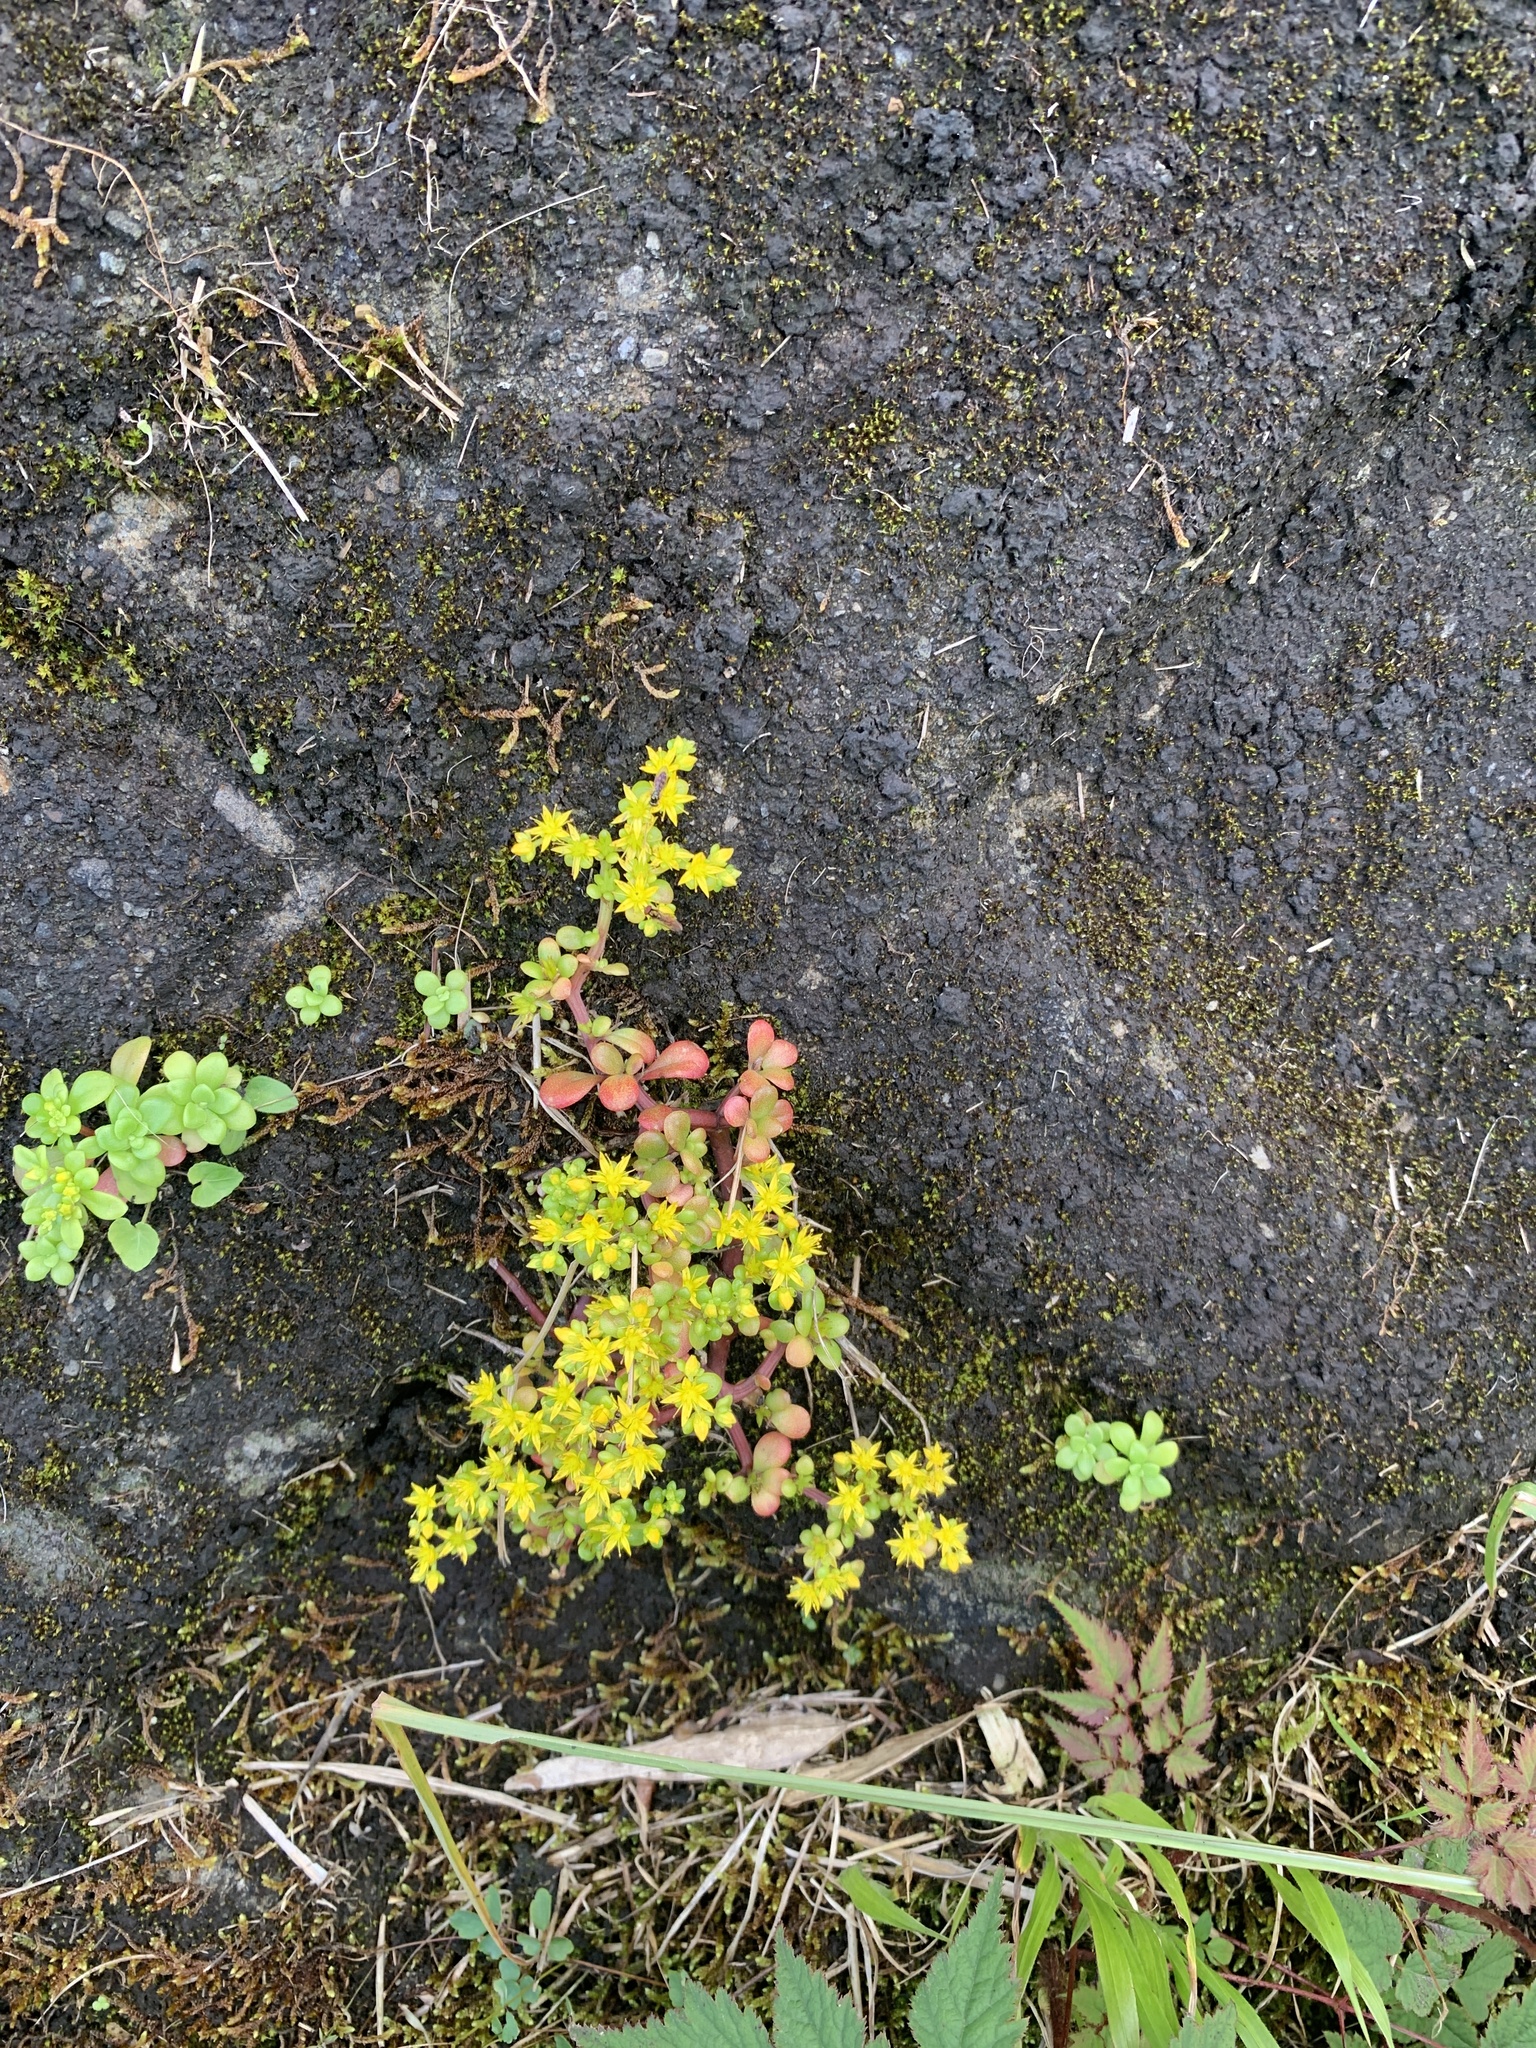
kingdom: Plantae
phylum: Tracheophyta
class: Magnoliopsida
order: Saxifragales
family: Crassulaceae
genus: Sedum
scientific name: Sedum formosanum
